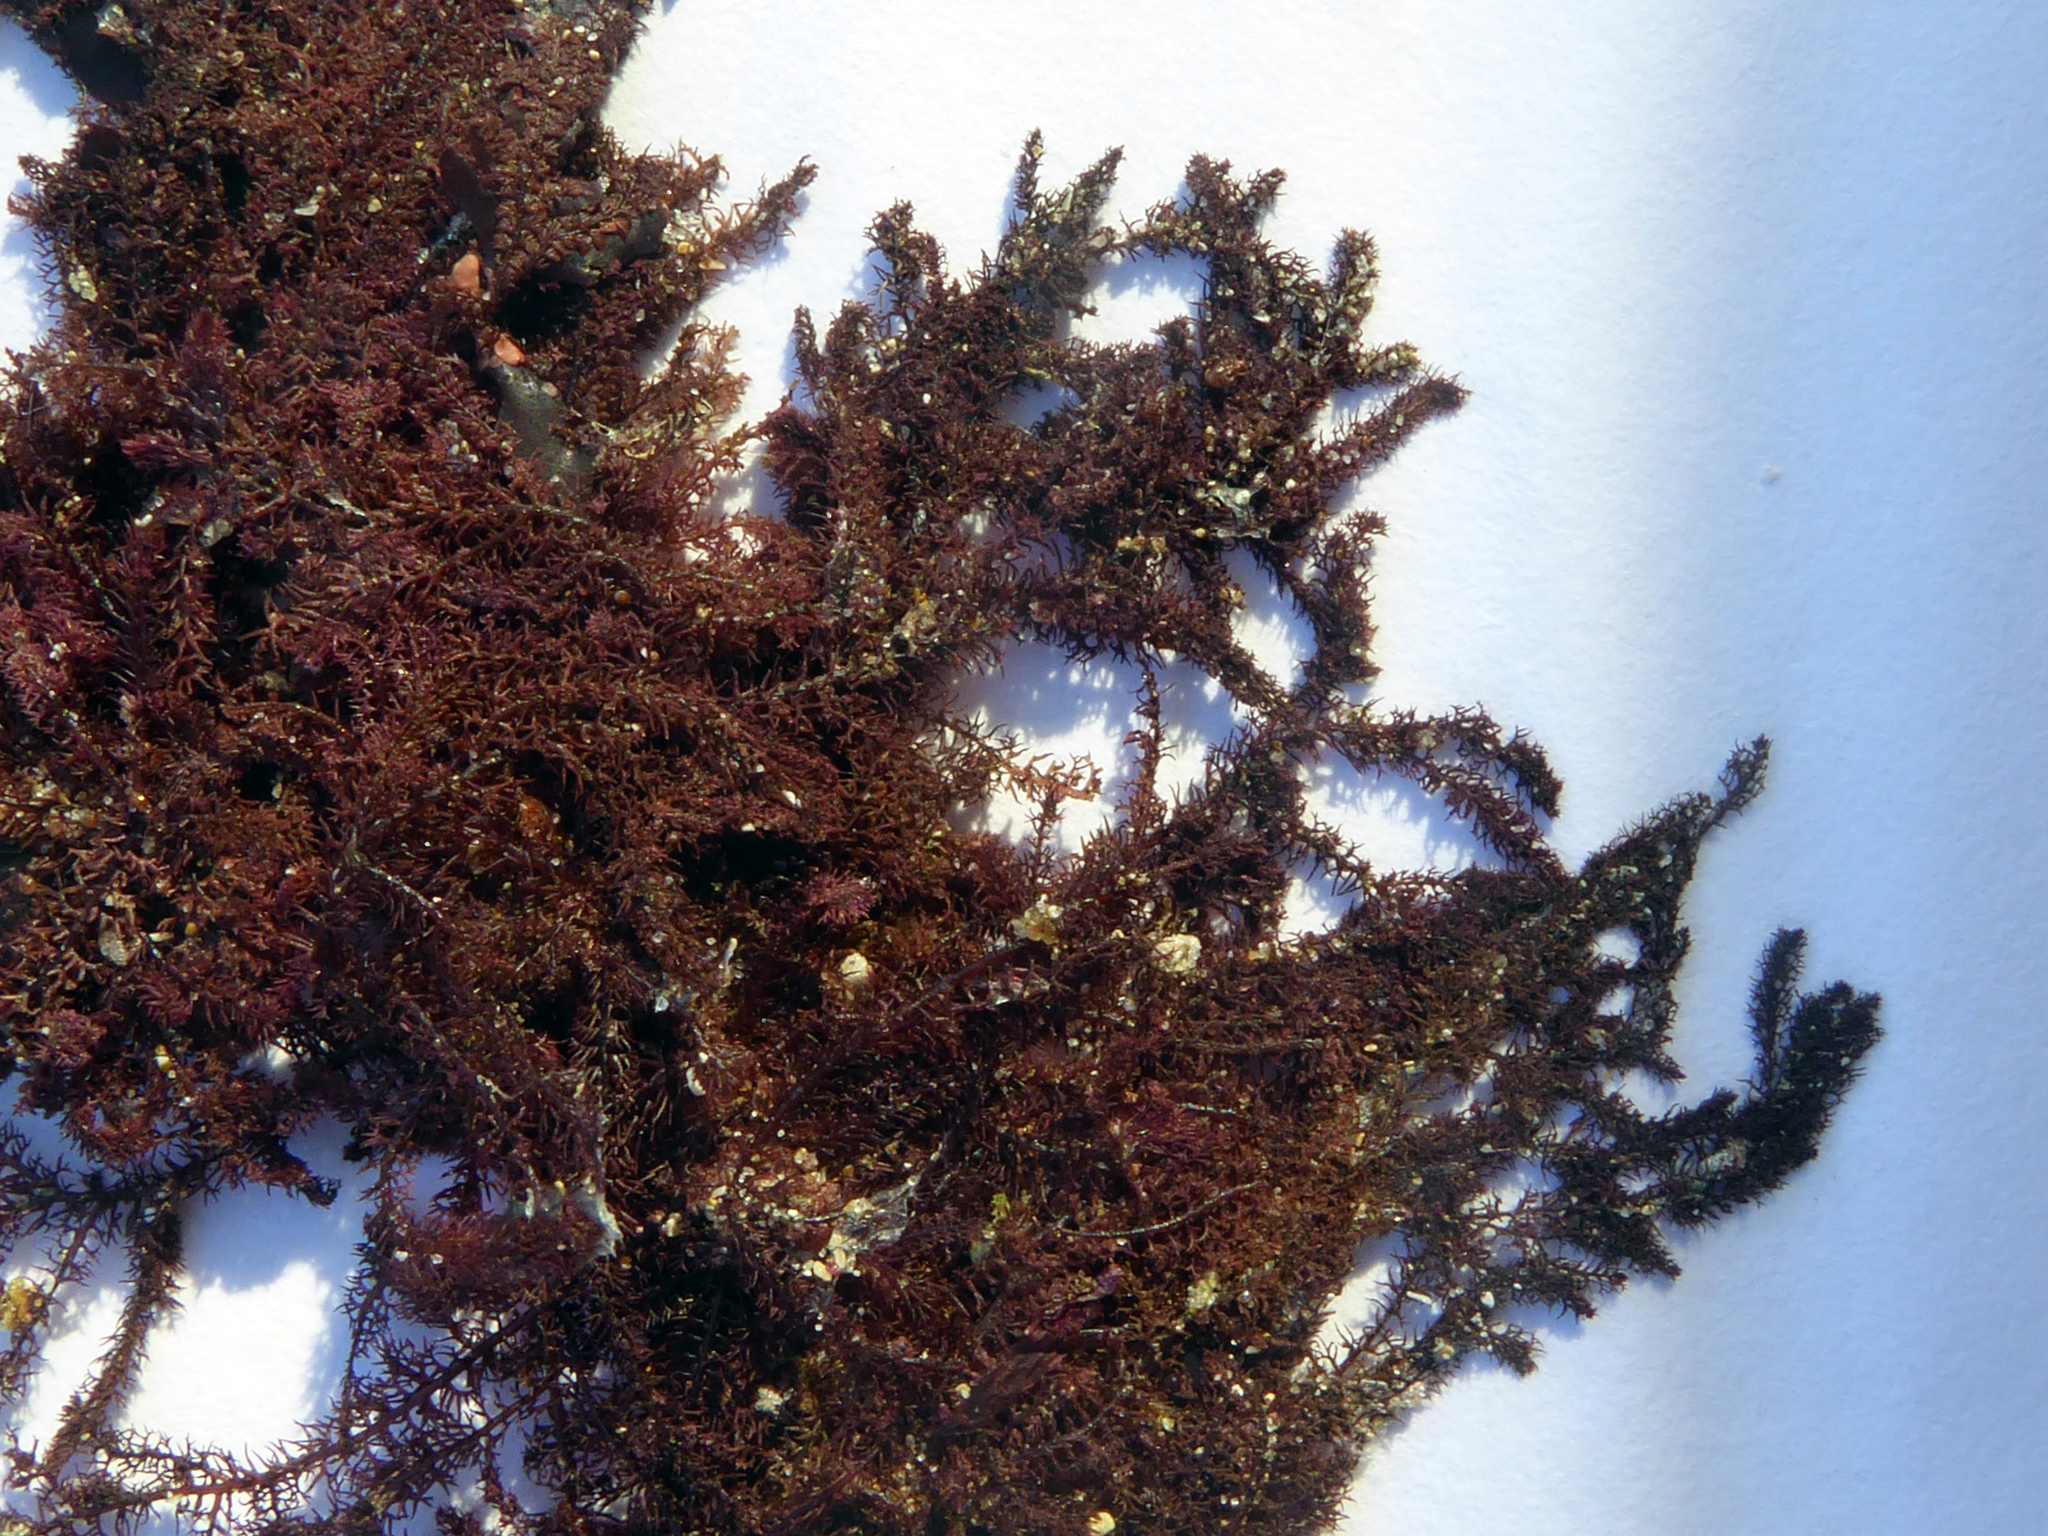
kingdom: Plantae
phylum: Rhodophyta
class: Florideophyceae
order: Ceramiales
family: Rhodomelaceae
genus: Dasyclonium
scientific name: Dasyclonium incisum
